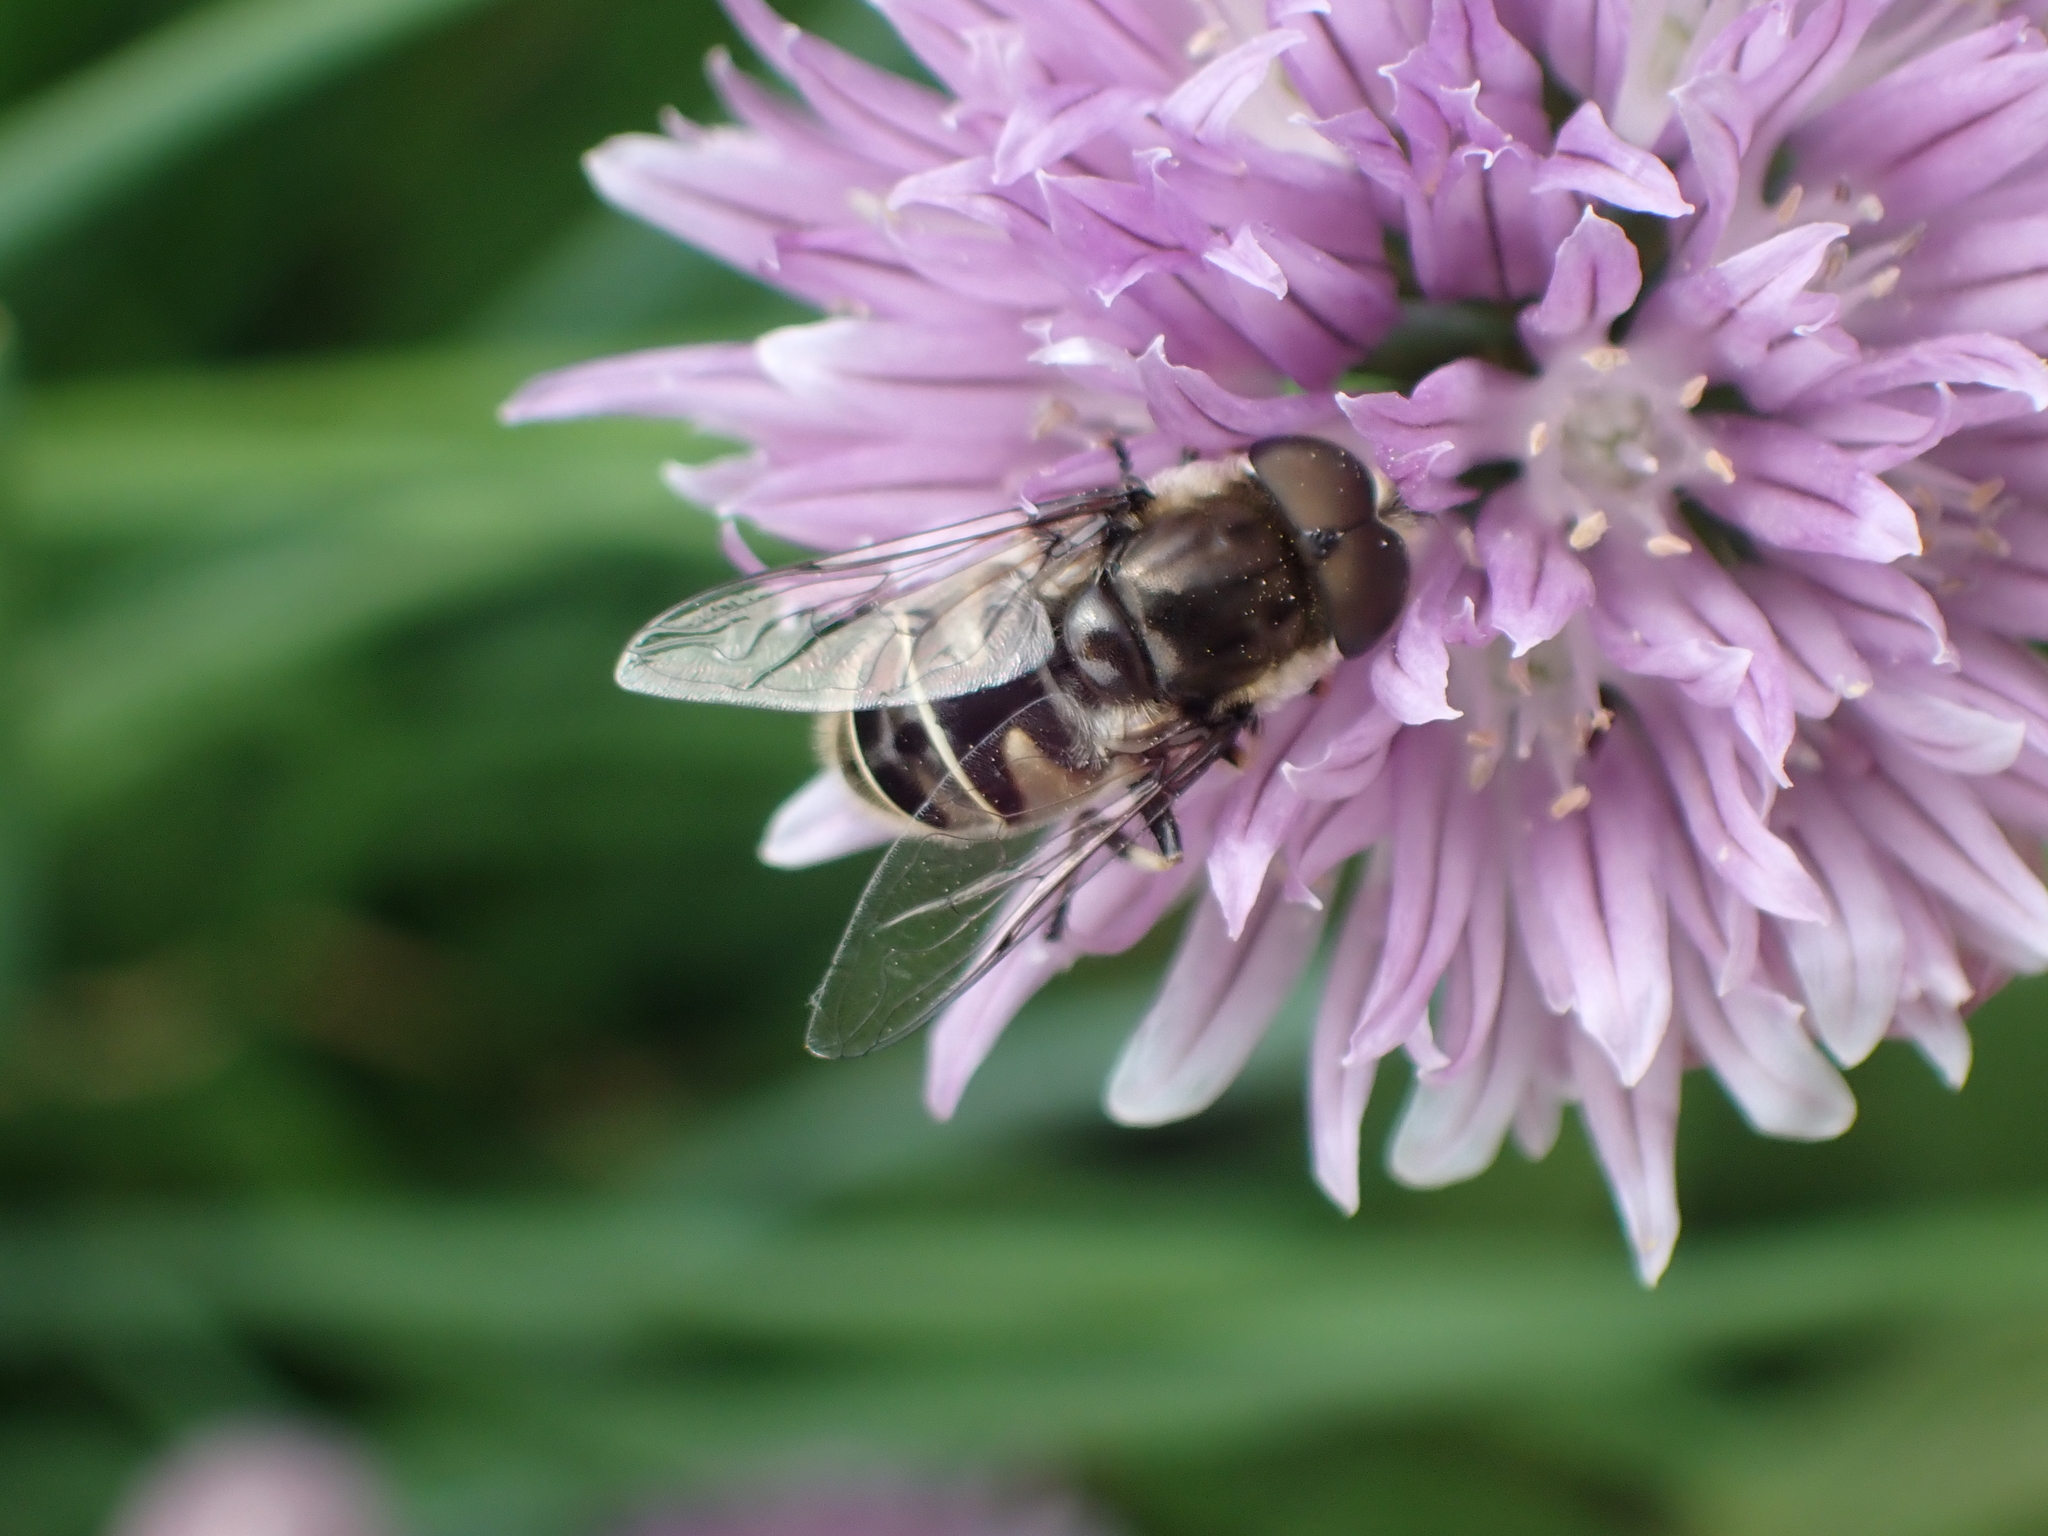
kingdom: Animalia
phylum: Arthropoda
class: Insecta
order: Diptera
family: Syrphidae
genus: Eristalis
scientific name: Eristalis dimidiata
